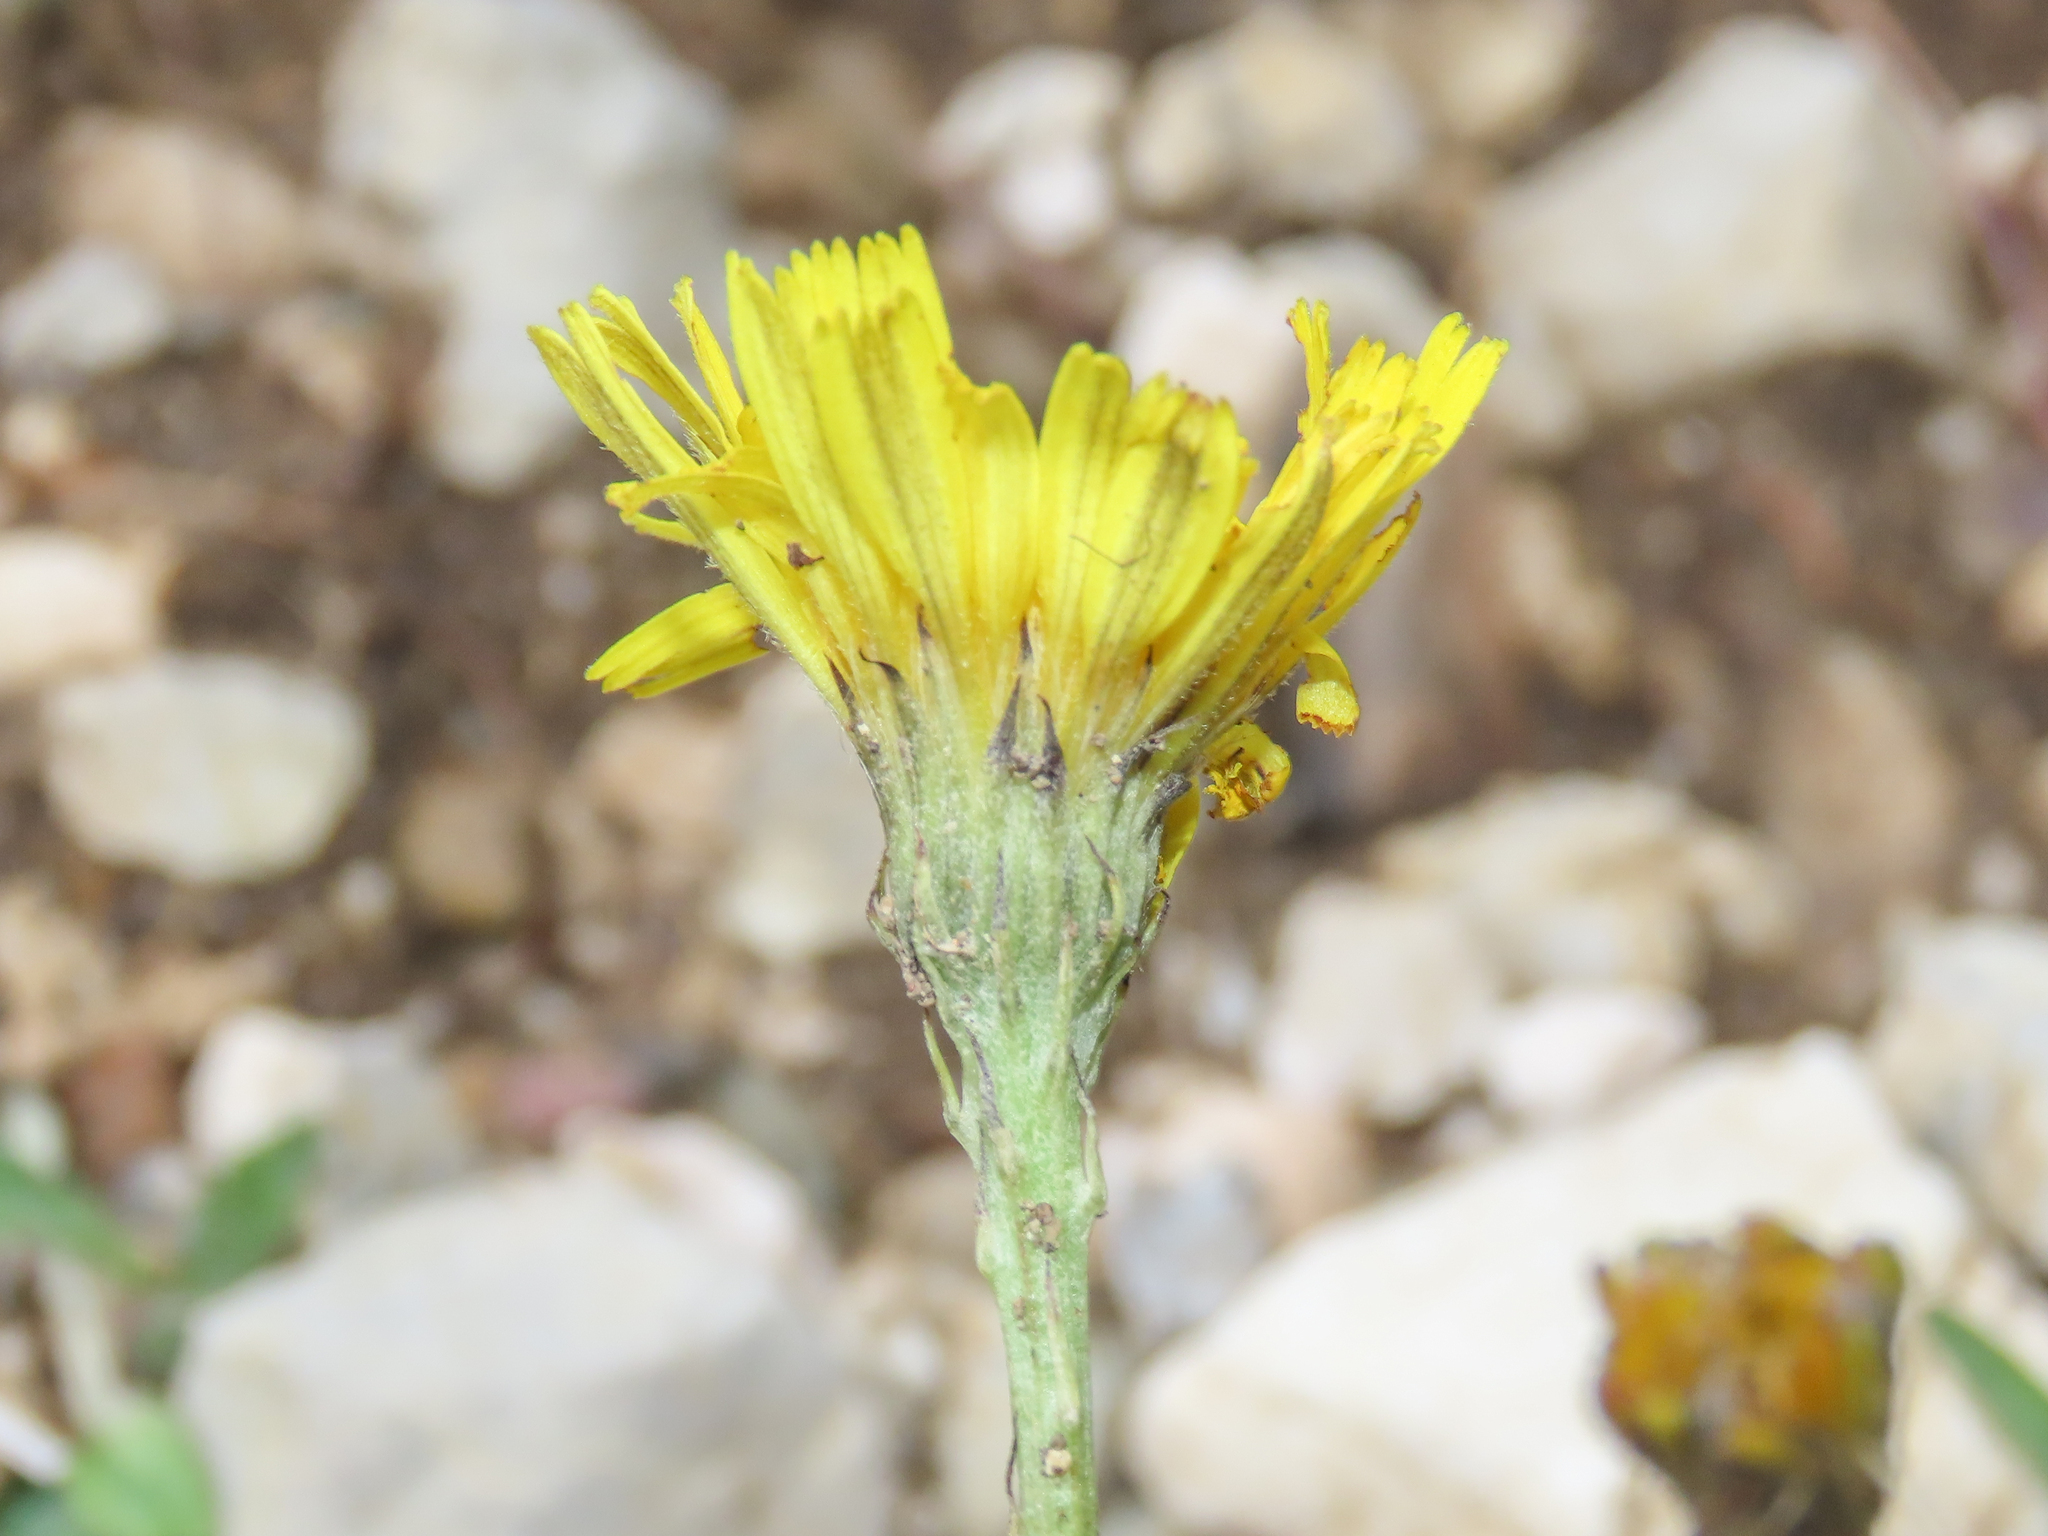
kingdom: Plantae
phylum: Tracheophyta
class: Magnoliopsida
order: Asterales
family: Asteraceae
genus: Tolpis
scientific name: Tolpis staticifolia
